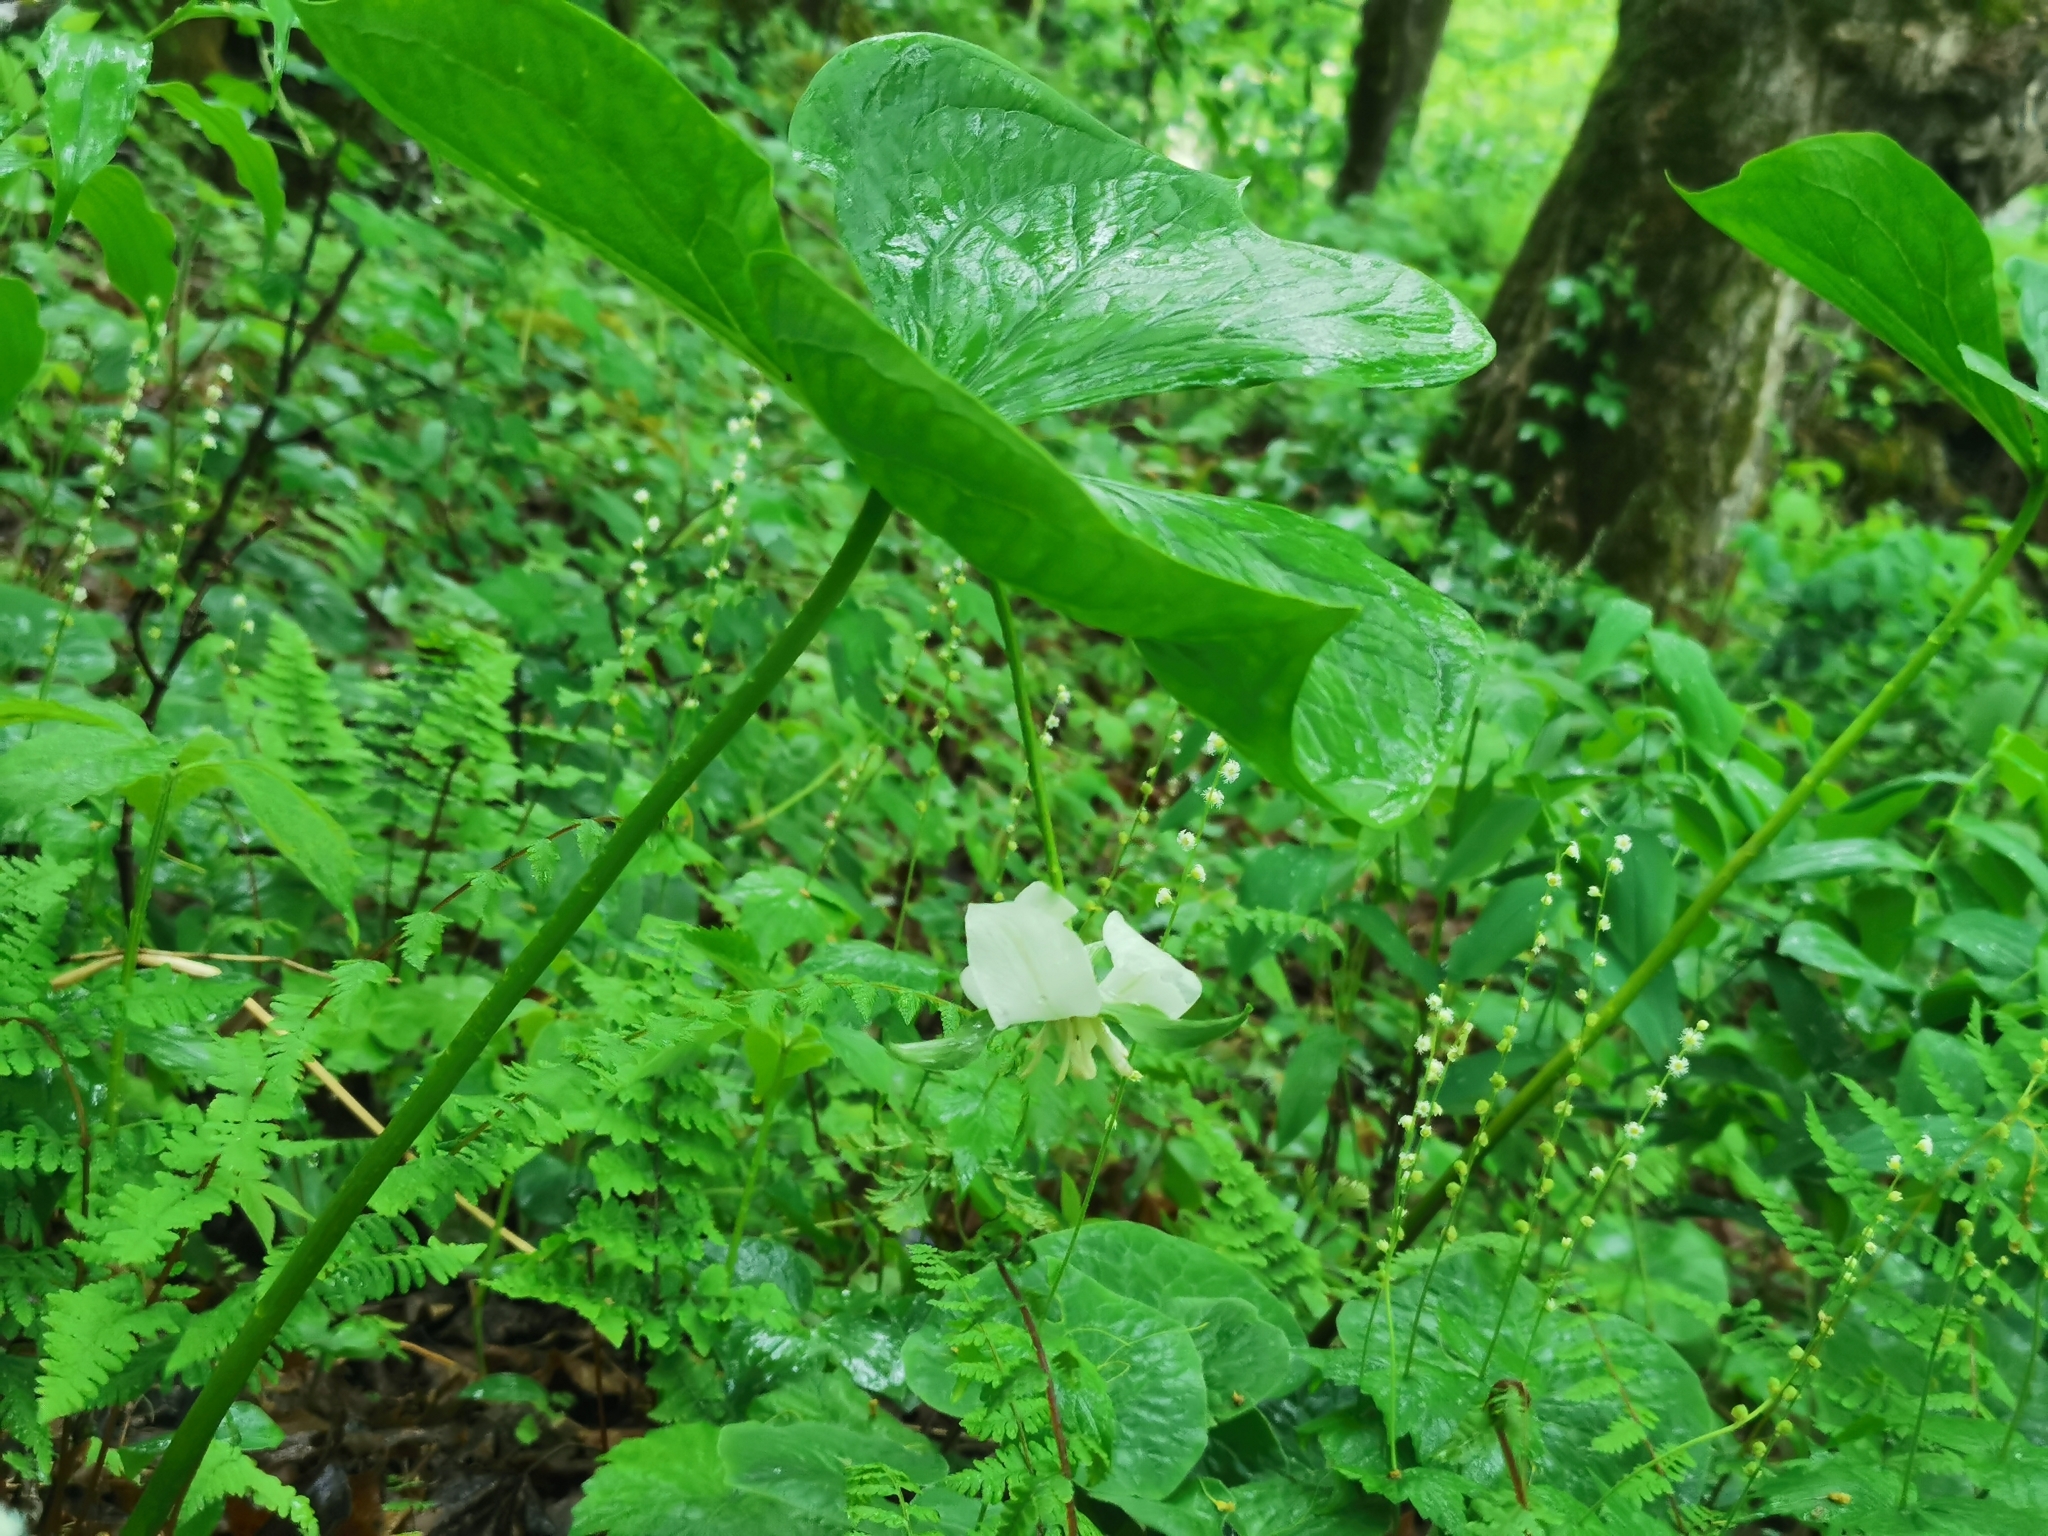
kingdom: Plantae
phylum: Tracheophyta
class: Magnoliopsida
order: Ranunculales
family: Berberidaceae
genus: Podophyllum
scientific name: Podophyllum peltatum
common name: Wild mandrake
